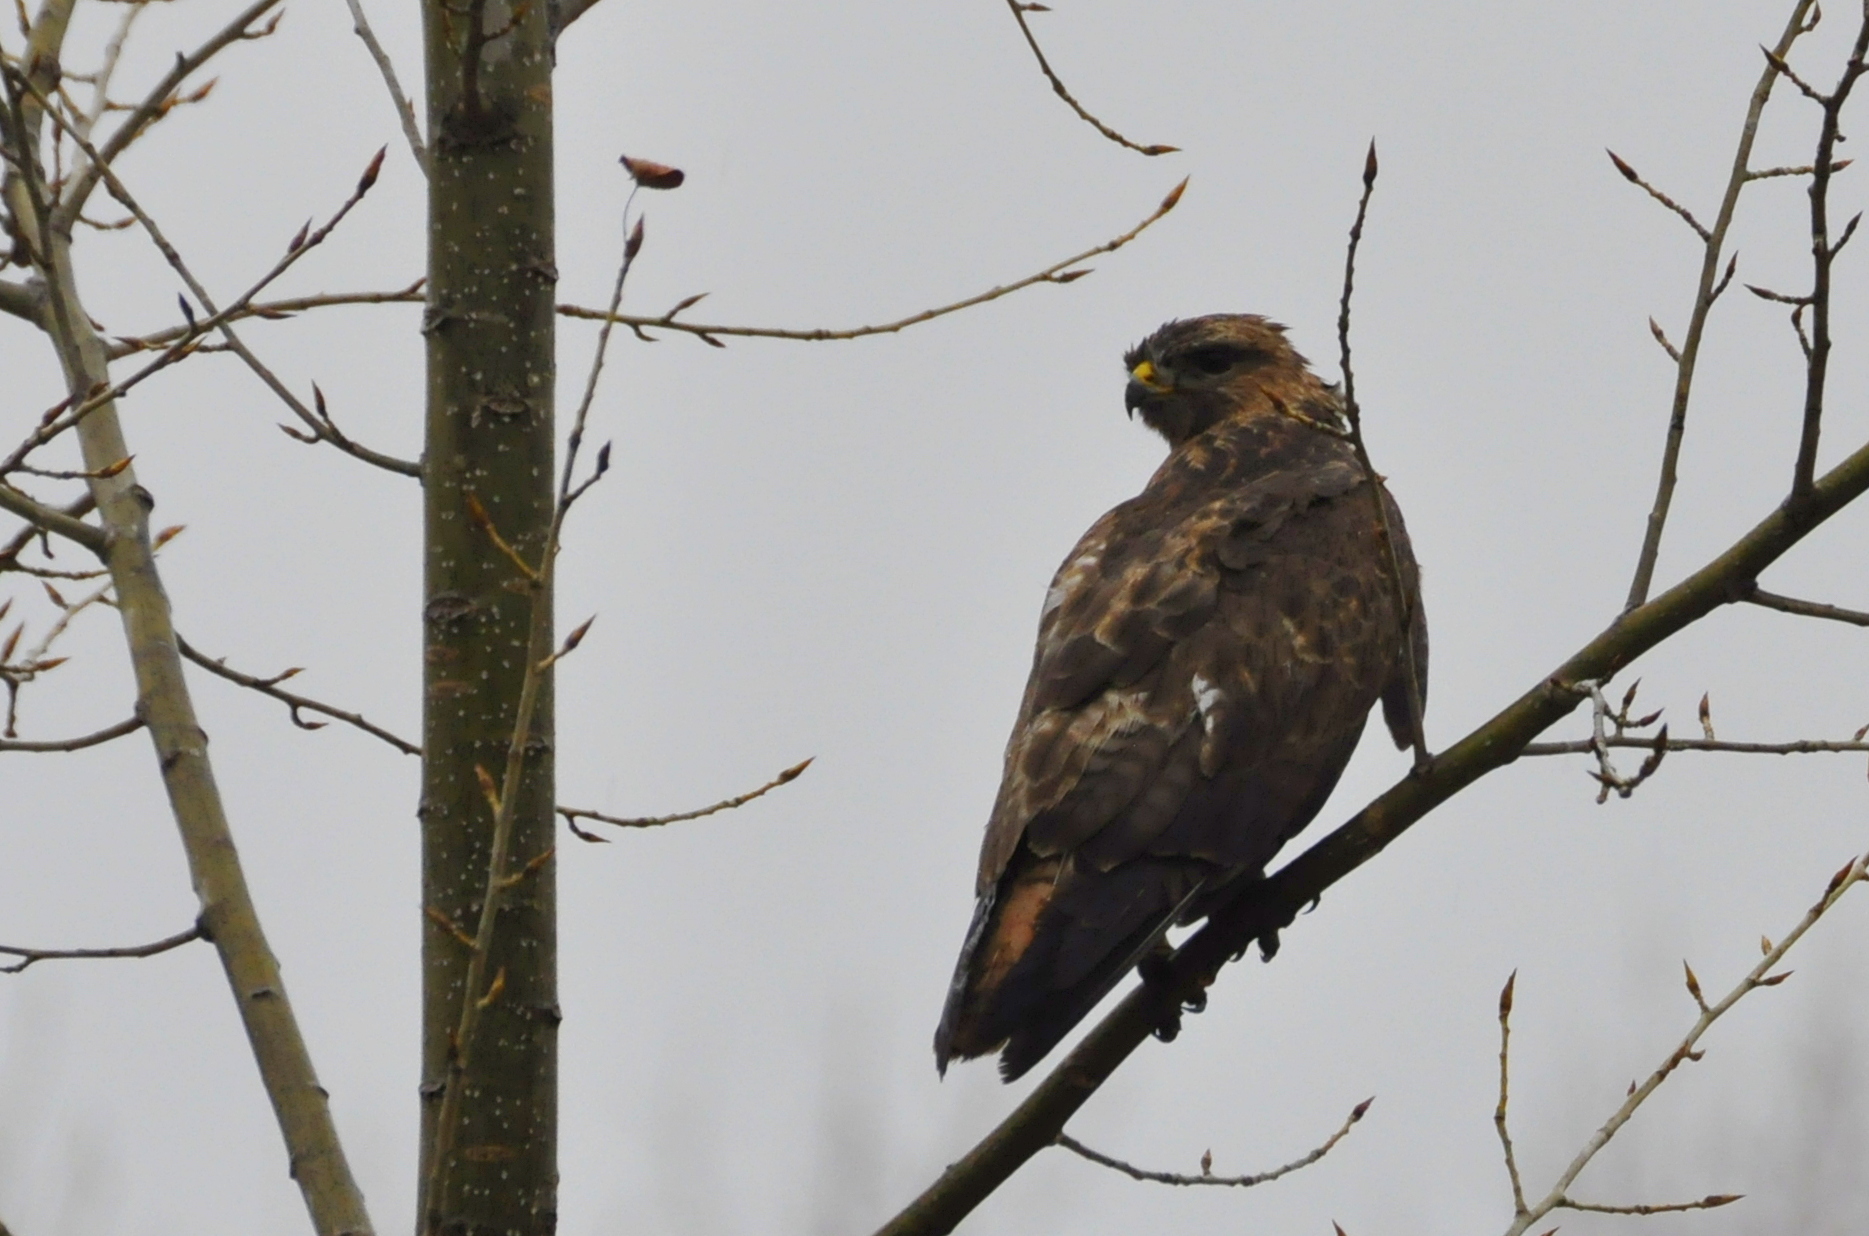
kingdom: Animalia
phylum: Chordata
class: Aves
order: Accipitriformes
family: Accipitridae
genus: Buteo
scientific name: Buteo buteo
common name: Common buzzard
